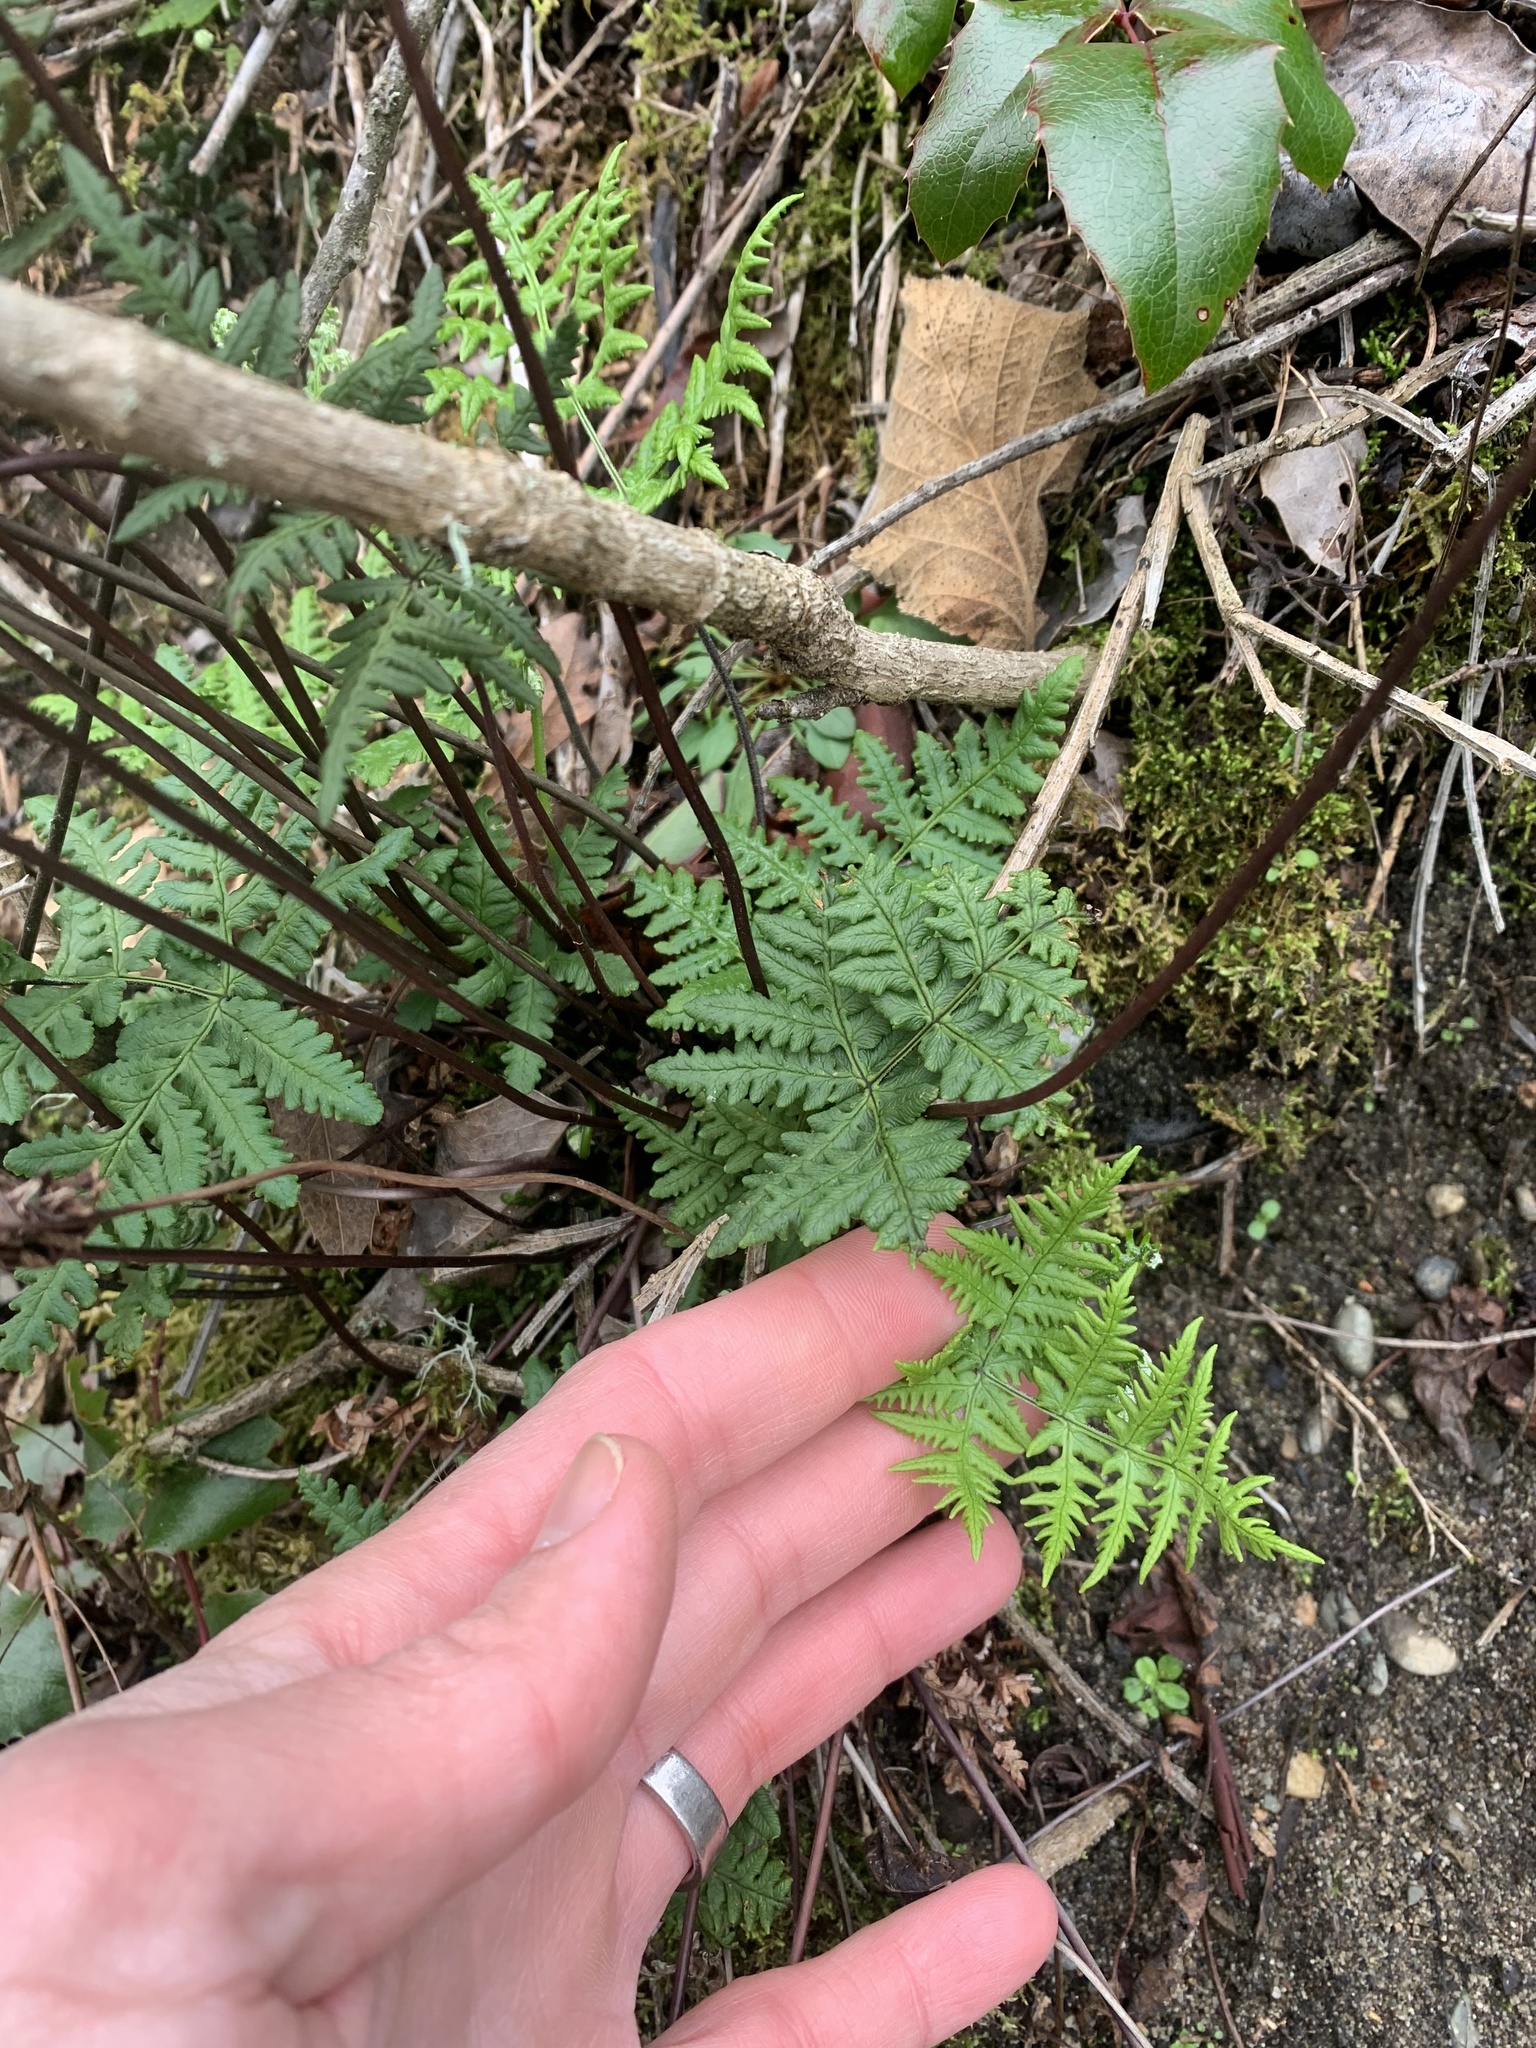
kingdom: Plantae
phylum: Tracheophyta
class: Polypodiopsida
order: Polypodiales
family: Pteridaceae
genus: Pentagramma
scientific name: Pentagramma triangularis
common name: Gold fern
